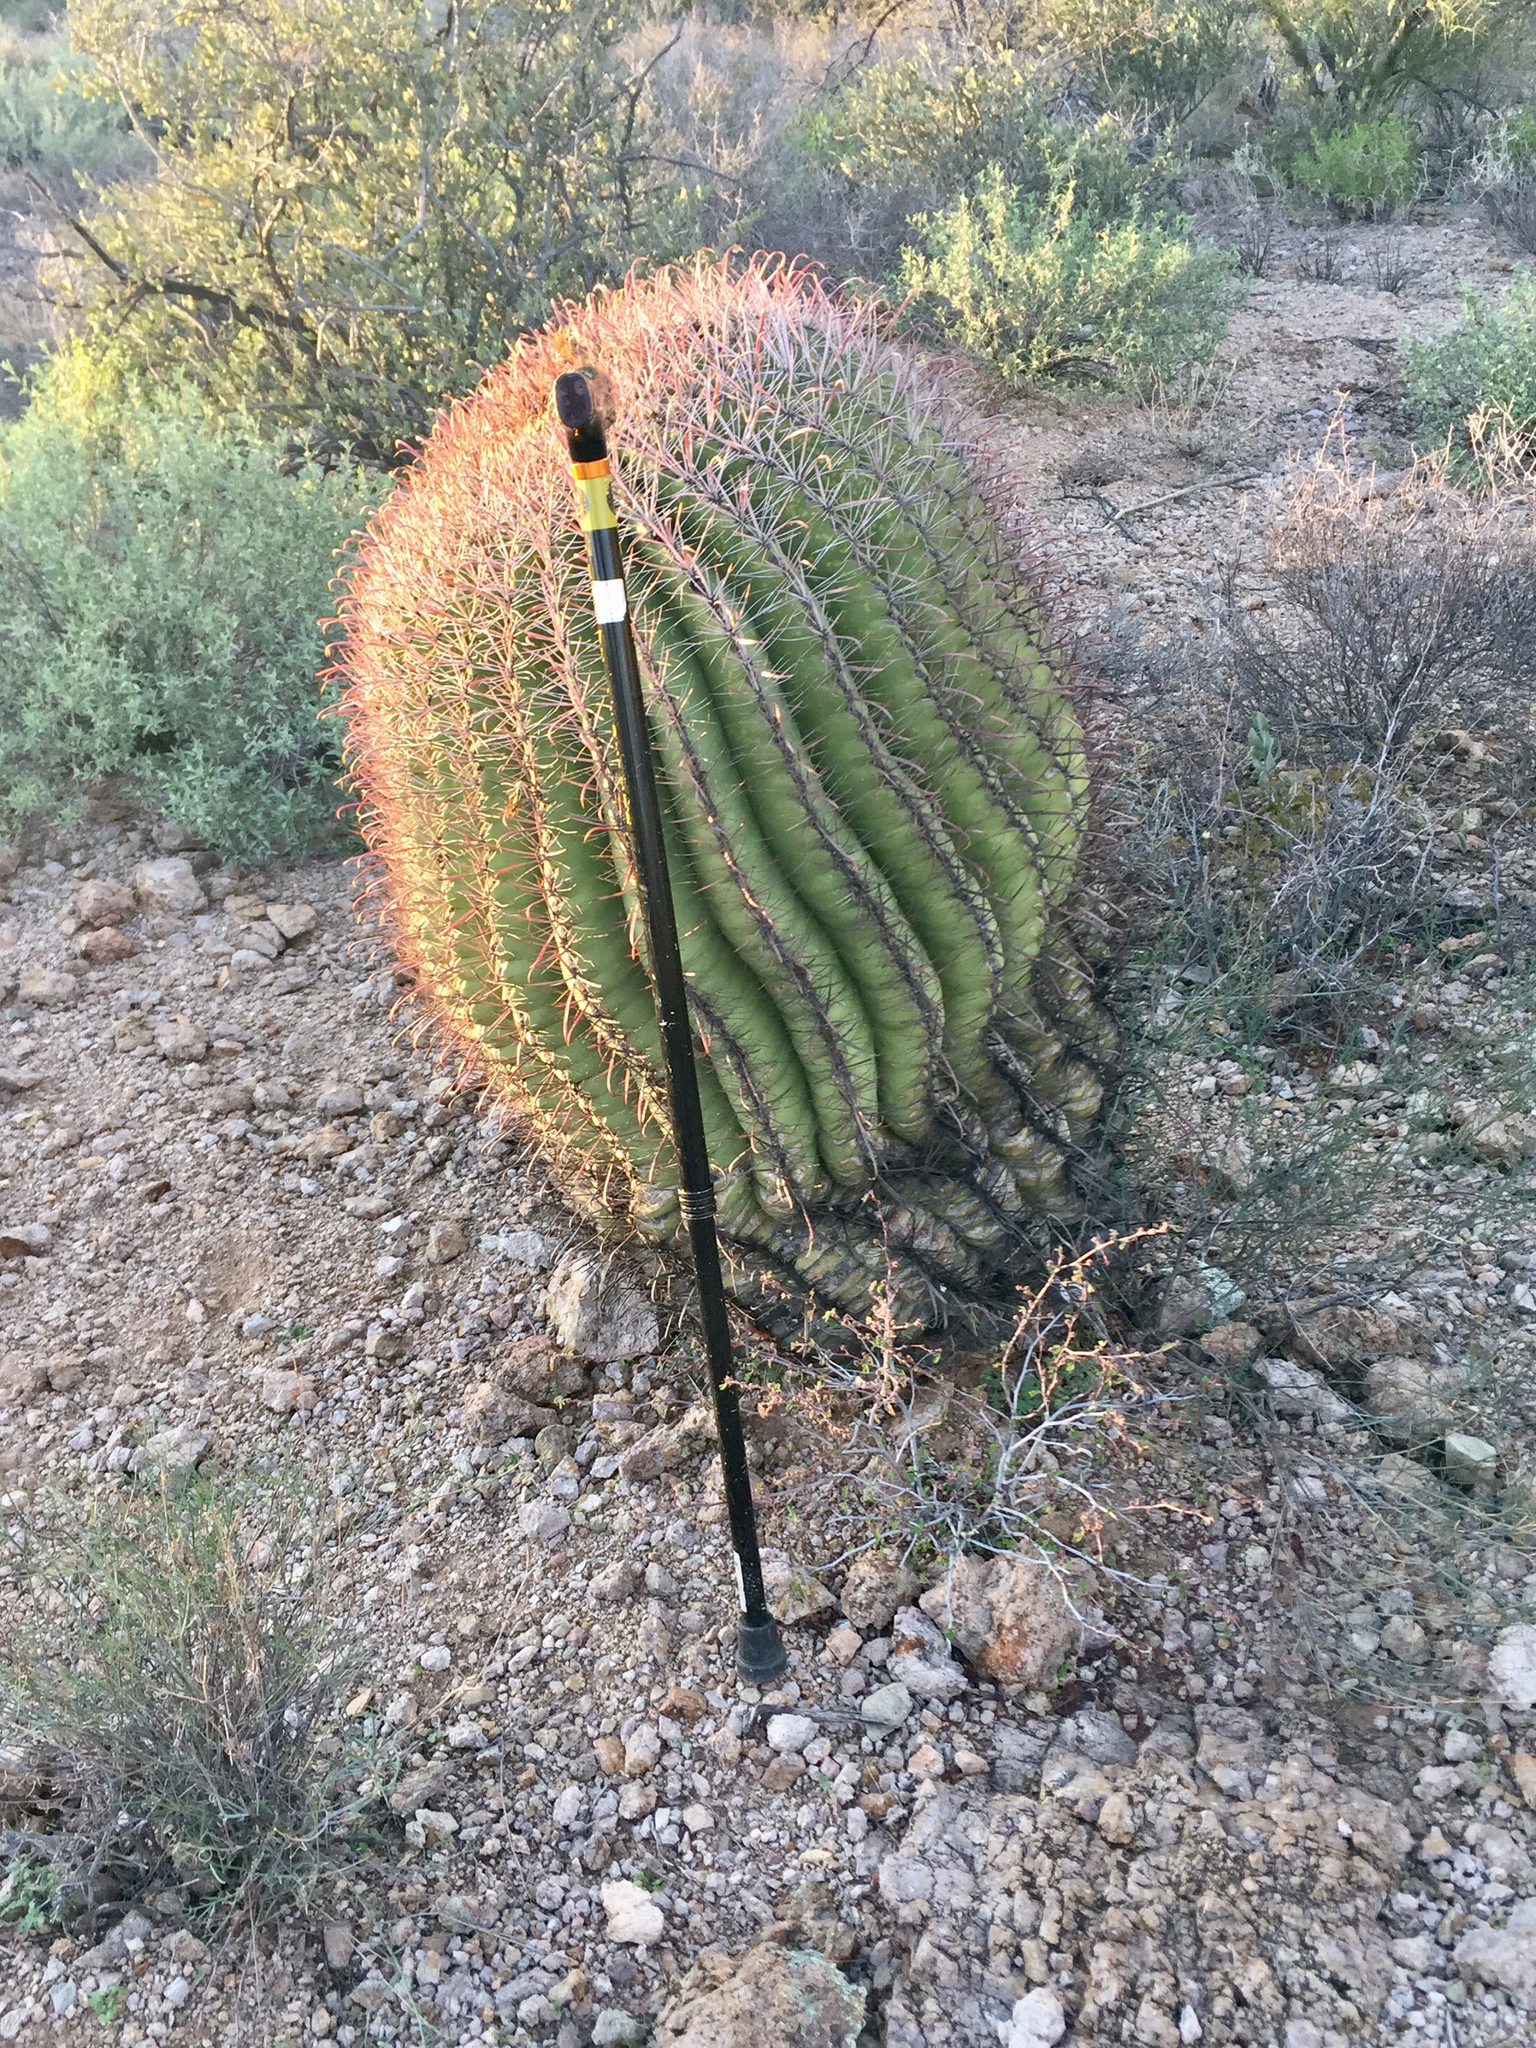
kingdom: Plantae
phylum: Tracheophyta
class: Magnoliopsida
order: Caryophyllales
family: Cactaceae
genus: Ferocactus
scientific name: Ferocactus wislizeni
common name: Candy barrel cactus
